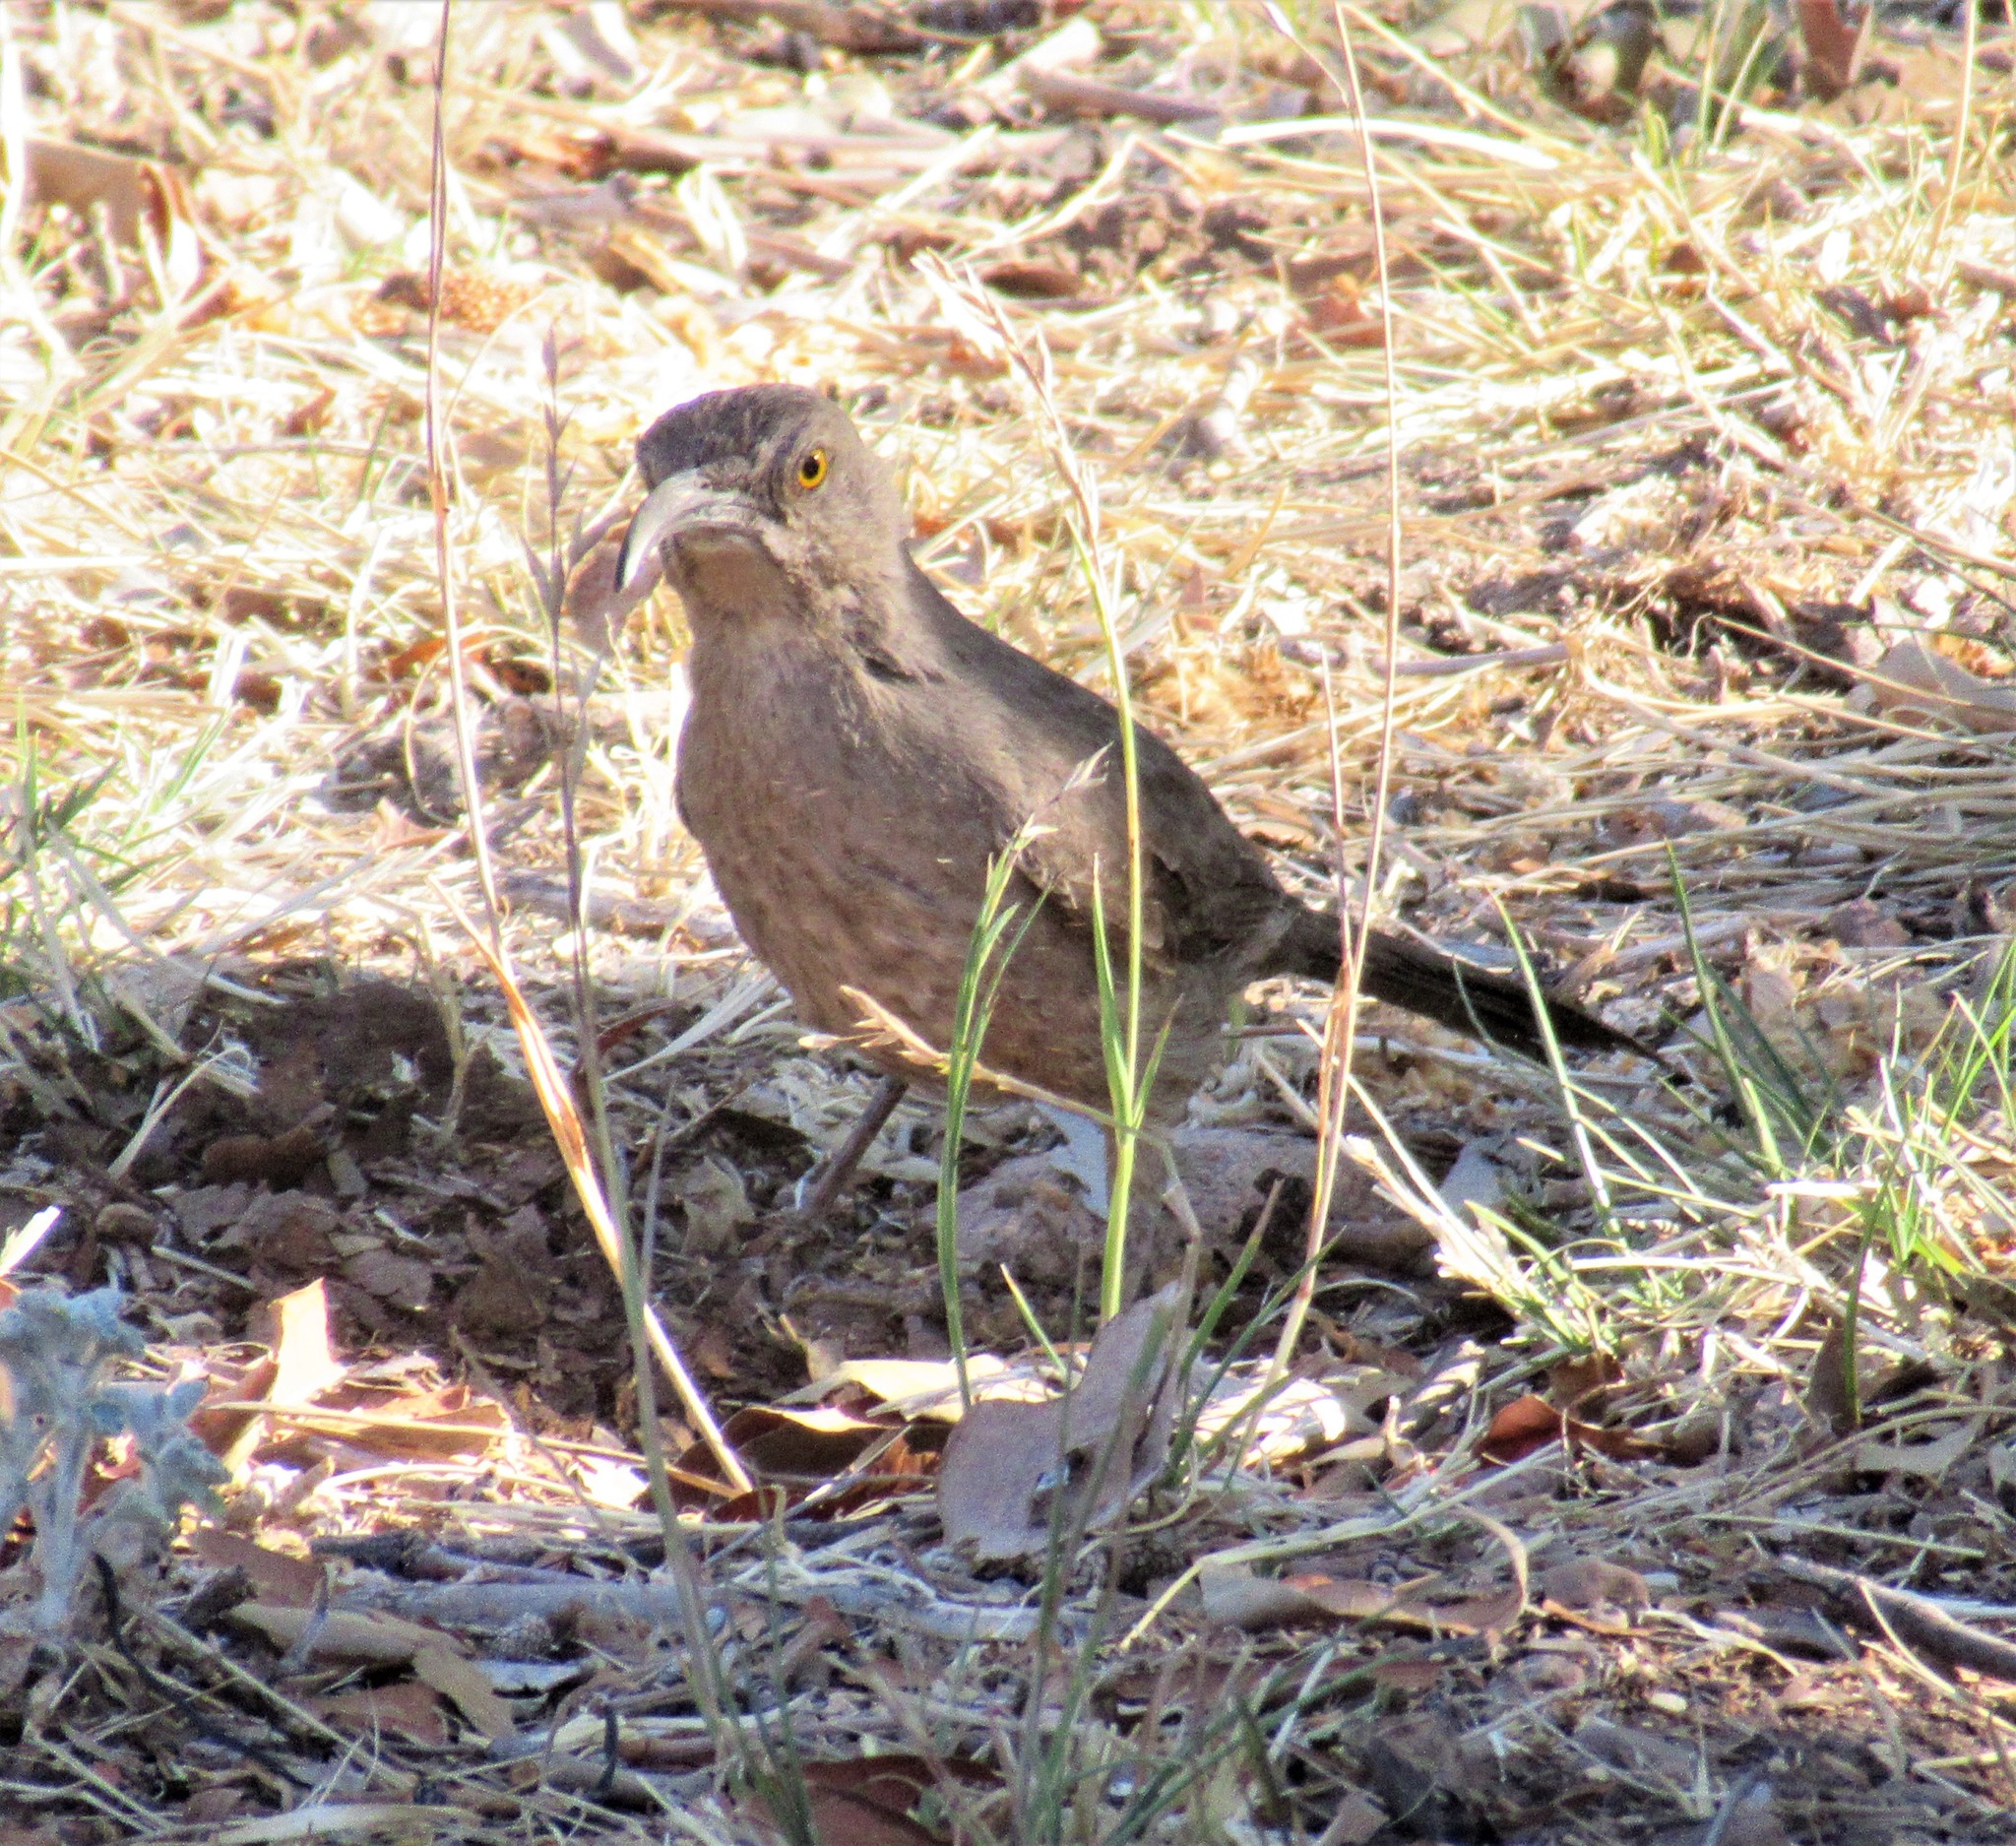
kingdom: Animalia
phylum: Chordata
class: Aves
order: Passeriformes
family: Mimidae
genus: Toxostoma
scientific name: Toxostoma curvirostre
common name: Curve-billed thrasher
